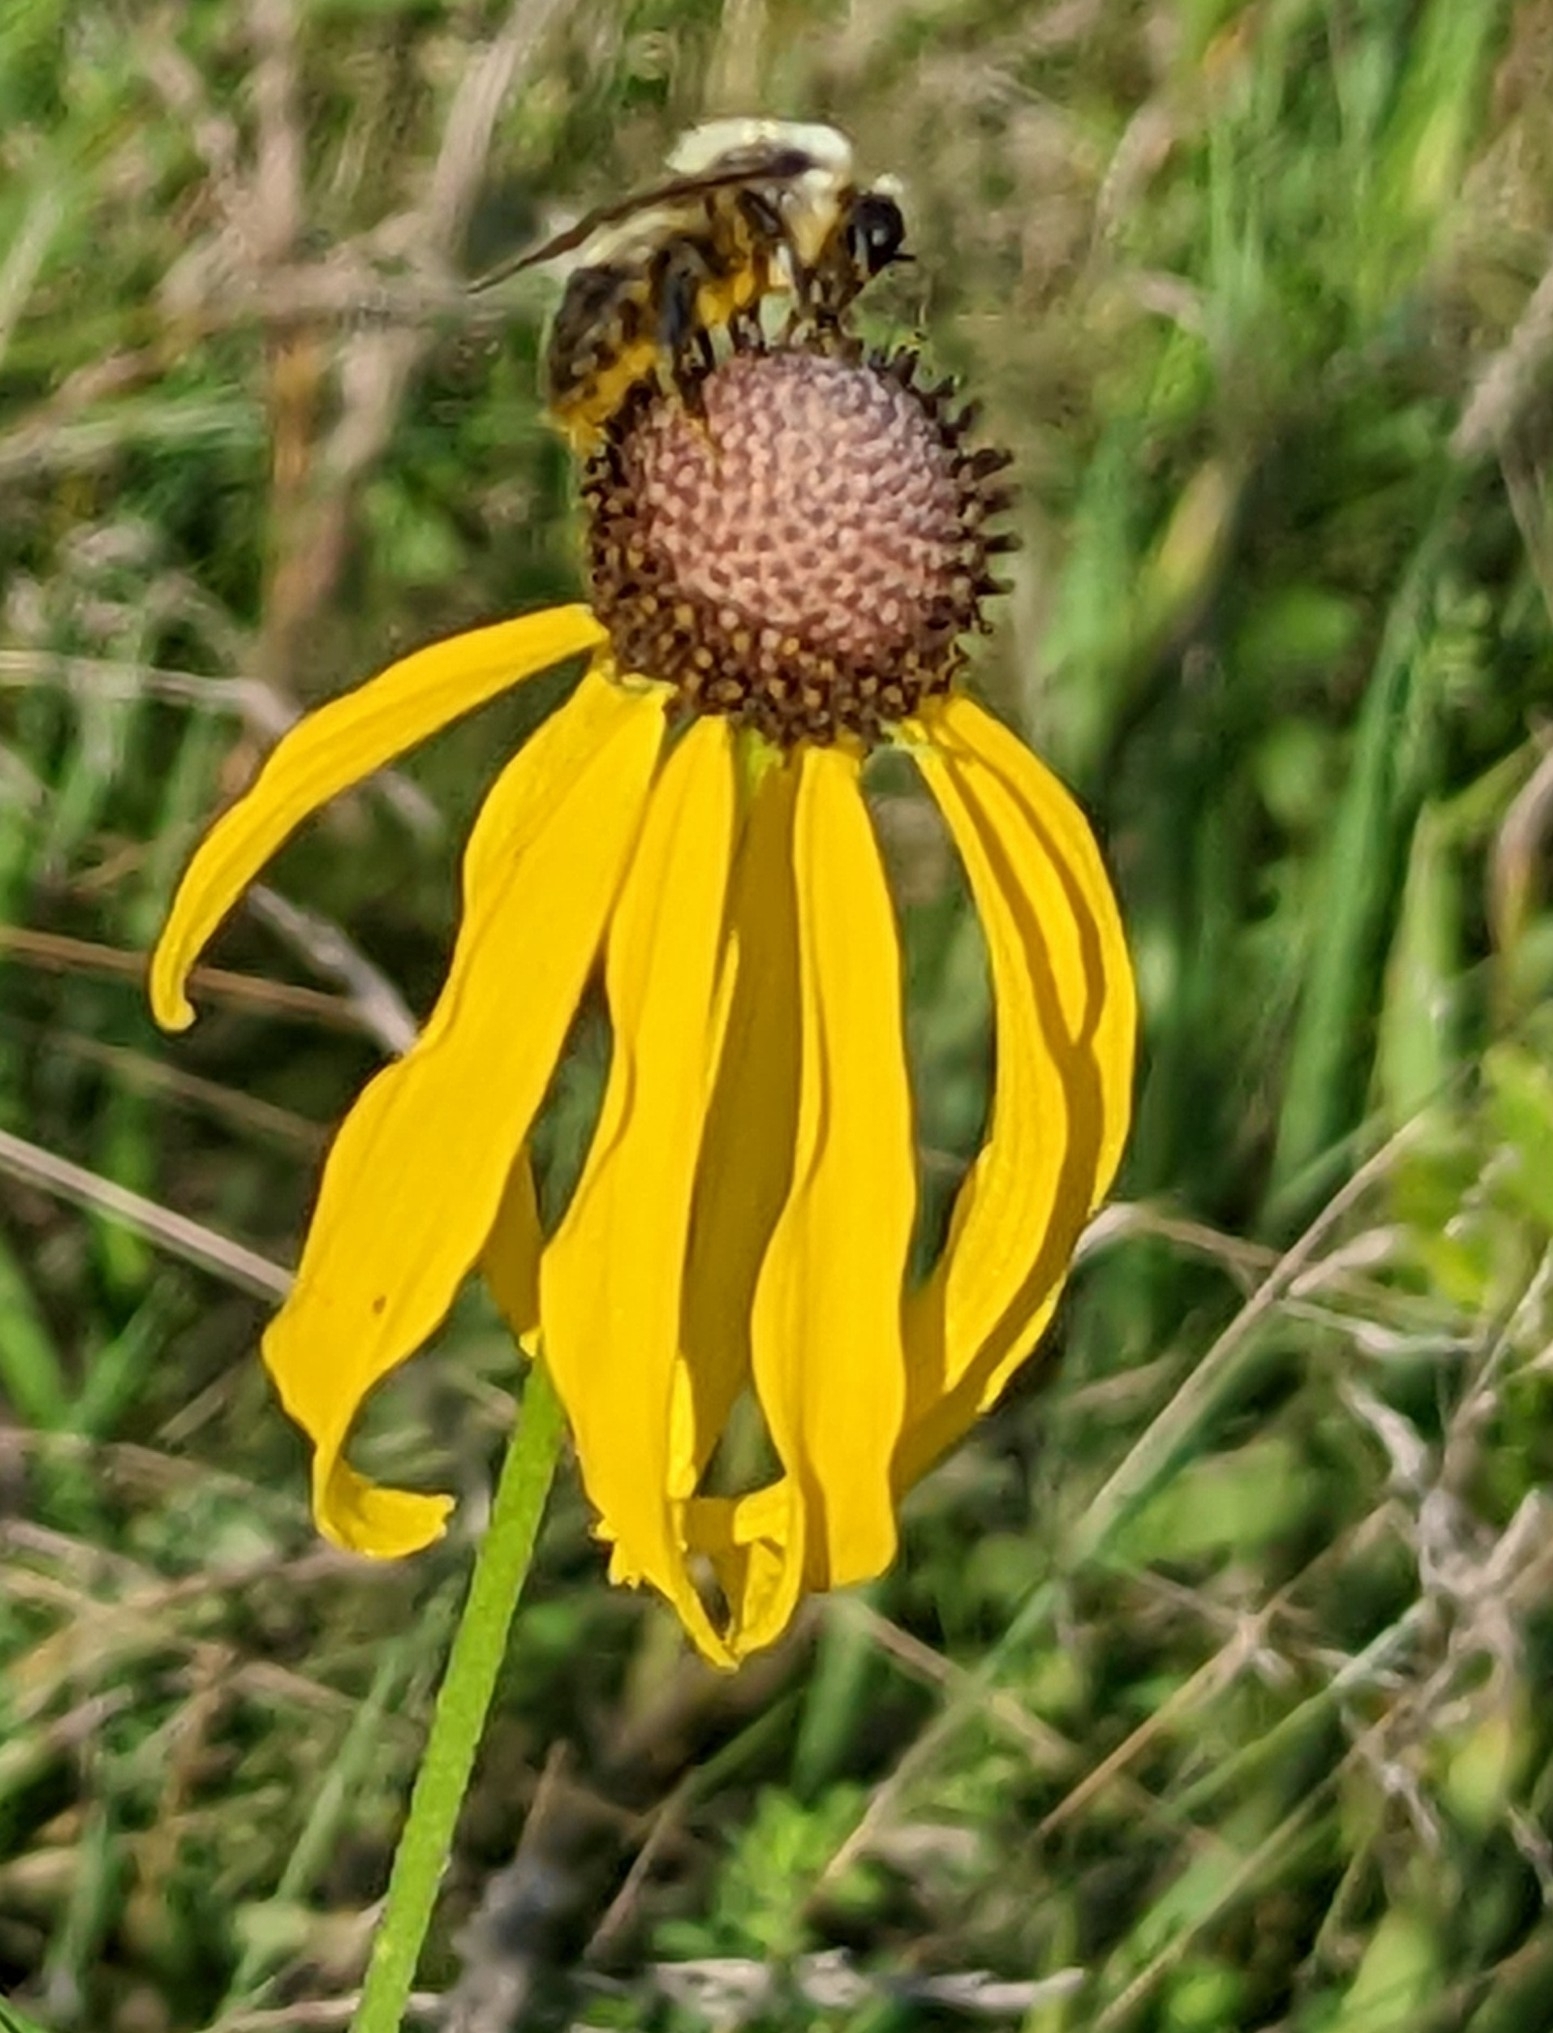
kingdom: Animalia
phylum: Arthropoda
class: Insecta
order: Hymenoptera
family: Apidae
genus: Bombus
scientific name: Bombus griseocollis
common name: Brown-belted bumble bee
